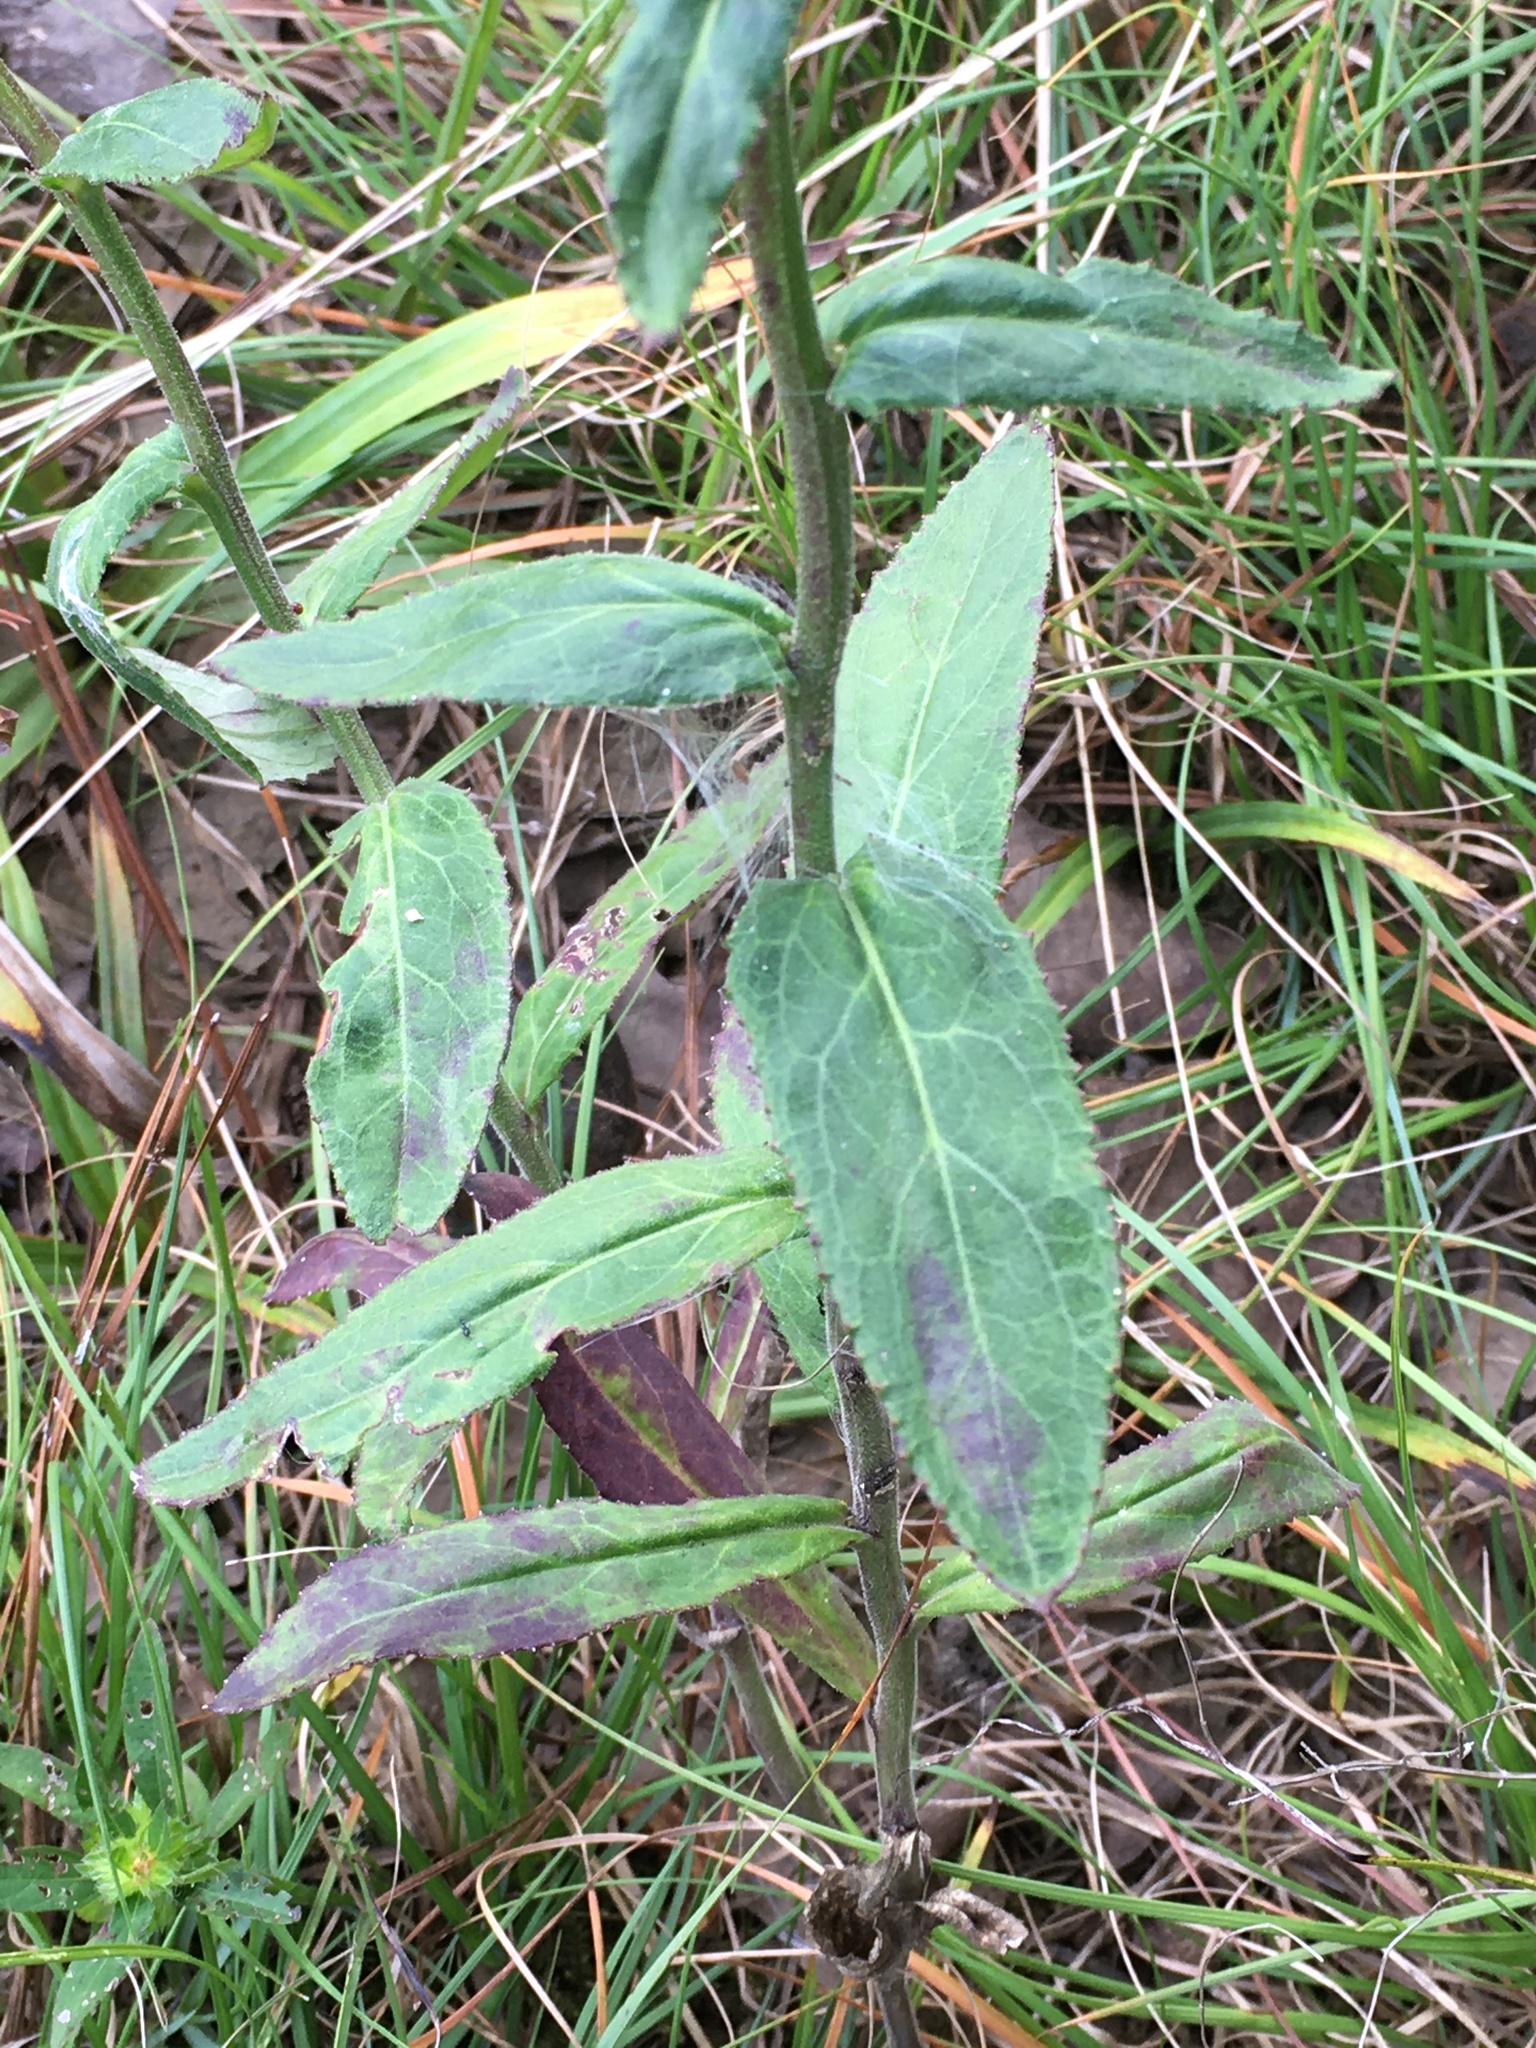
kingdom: Plantae
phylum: Tracheophyta
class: Magnoliopsida
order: Asterales
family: Campanulaceae
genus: Lobelia
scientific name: Lobelia puberula
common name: Purple dewdrop
